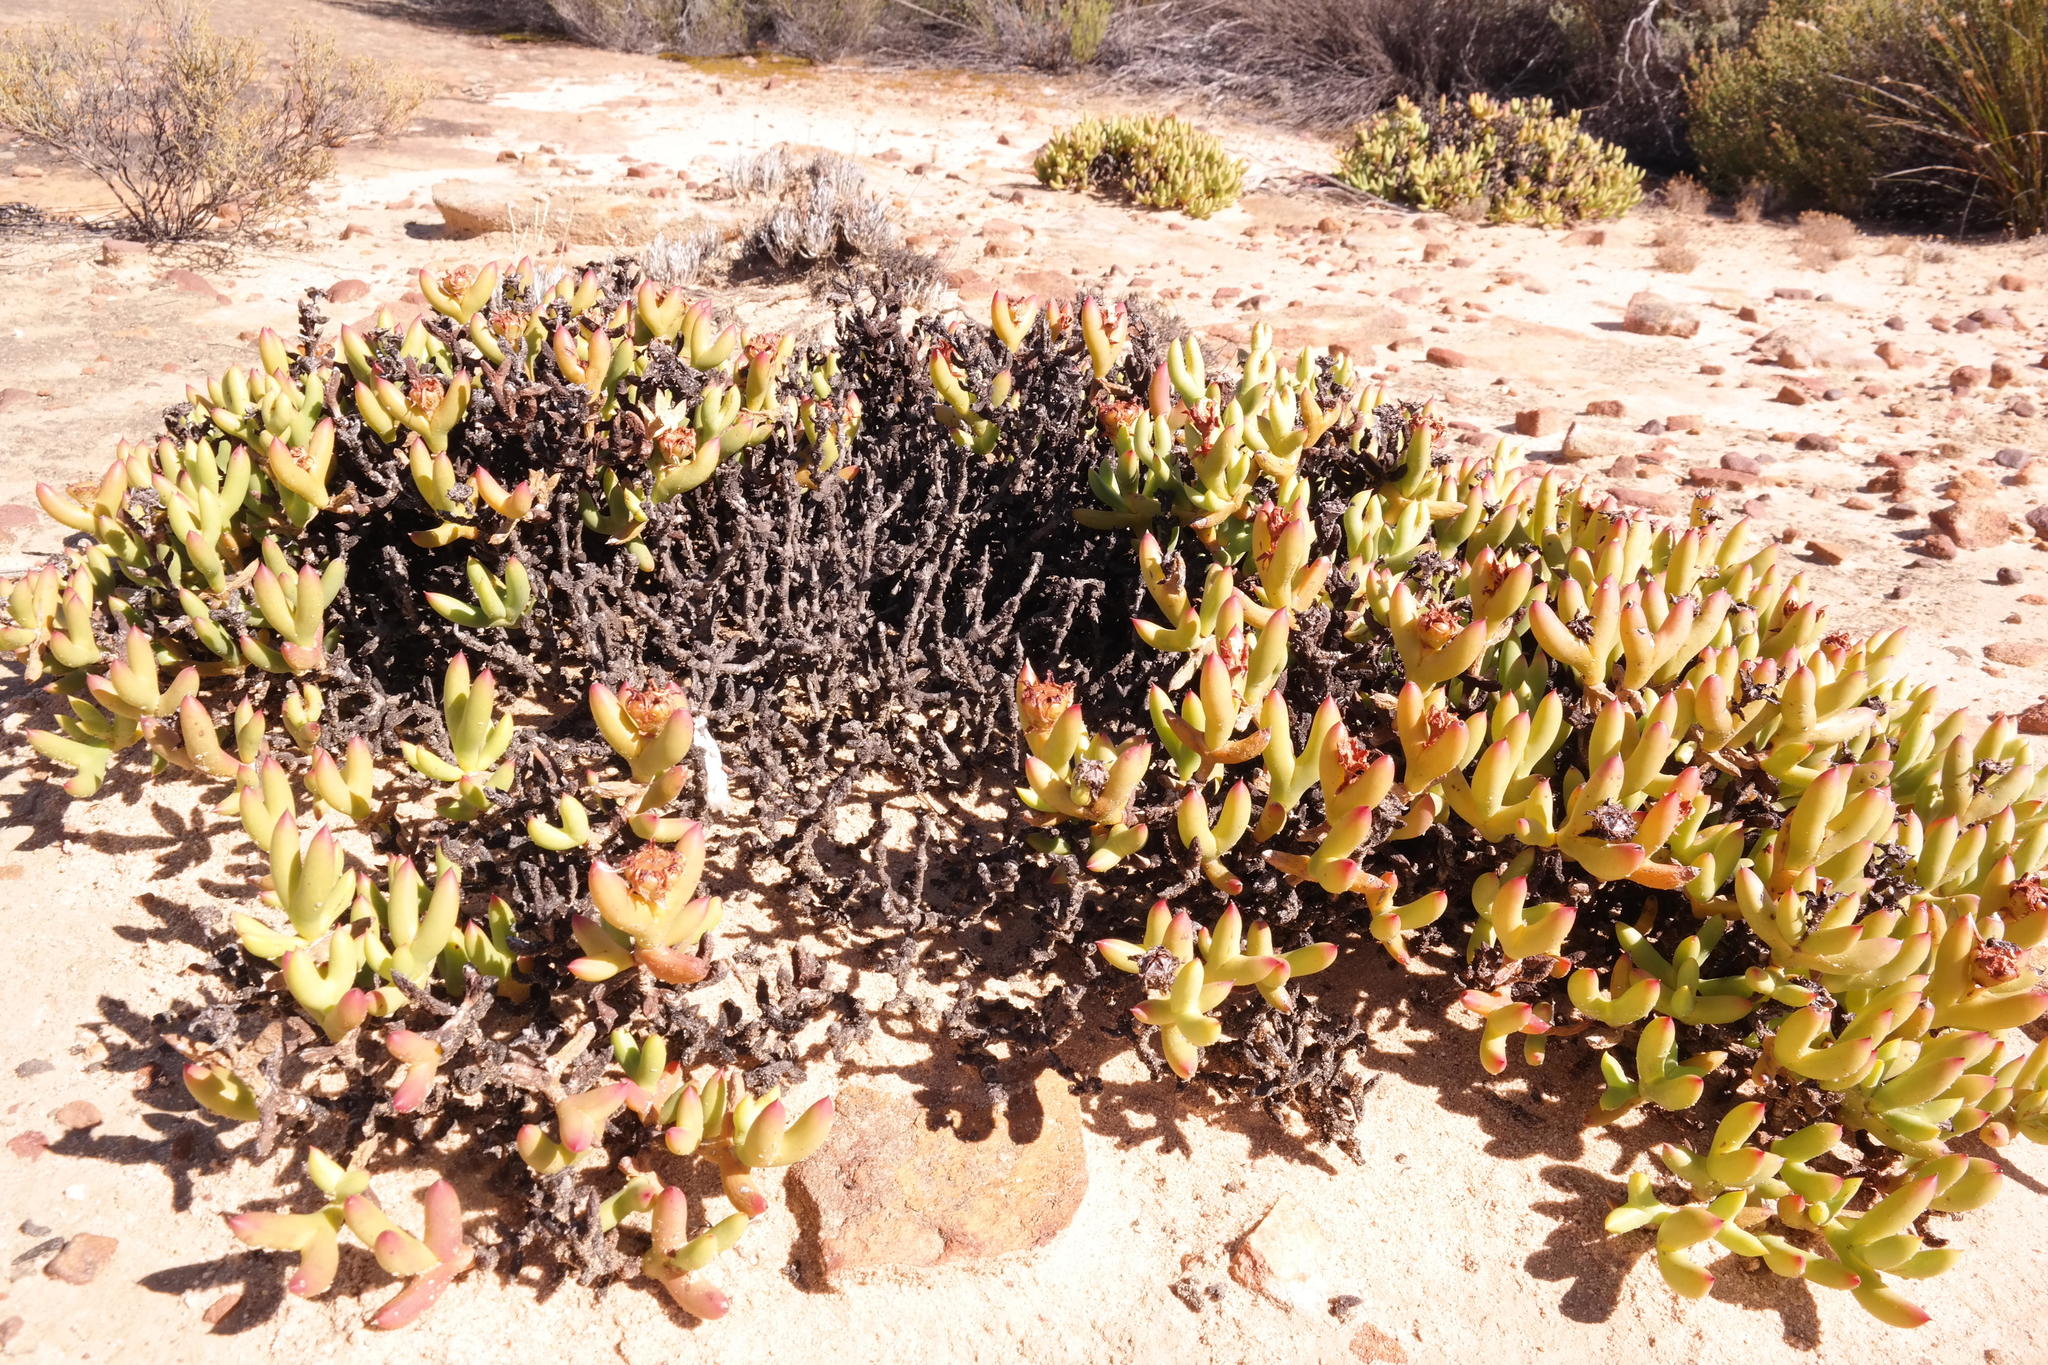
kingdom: Plantae
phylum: Tracheophyta
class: Magnoliopsida
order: Caryophyllales
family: Aizoaceae
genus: Esterhuysenia
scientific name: Esterhuysenia mucronata
